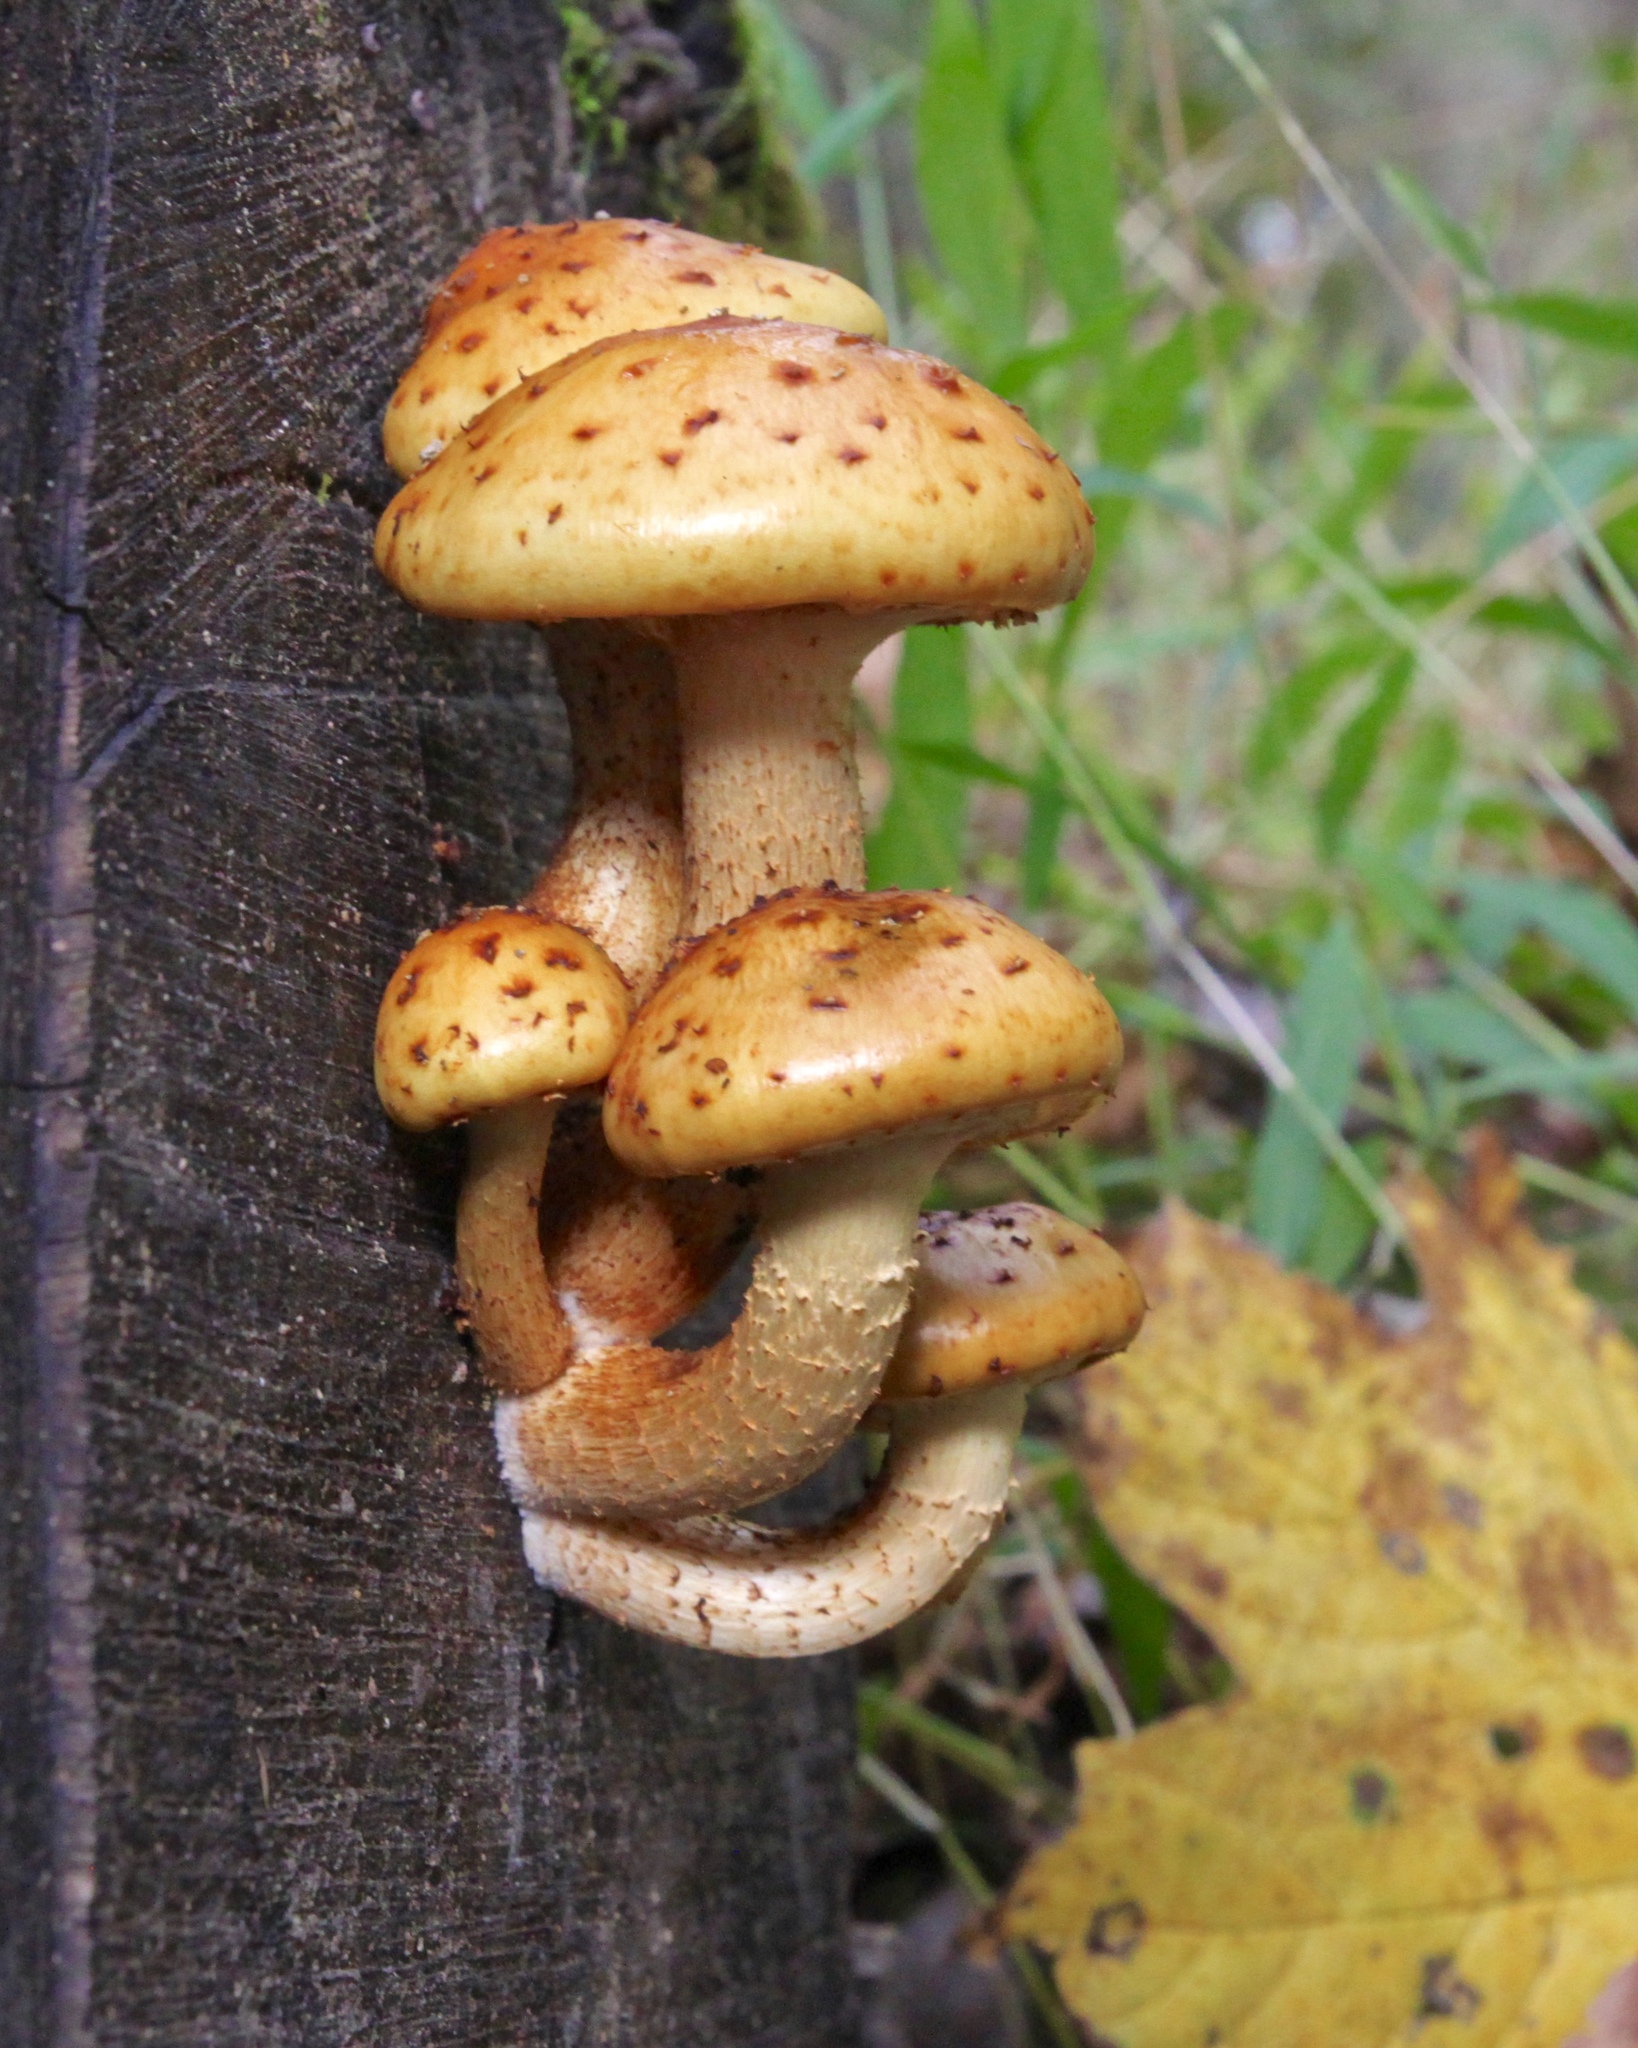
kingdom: Fungi
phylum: Basidiomycota
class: Agaricomycetes
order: Agaricales
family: Strophariaceae
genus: Pholiota
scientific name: Pholiota aurivella
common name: Golden scalycap
